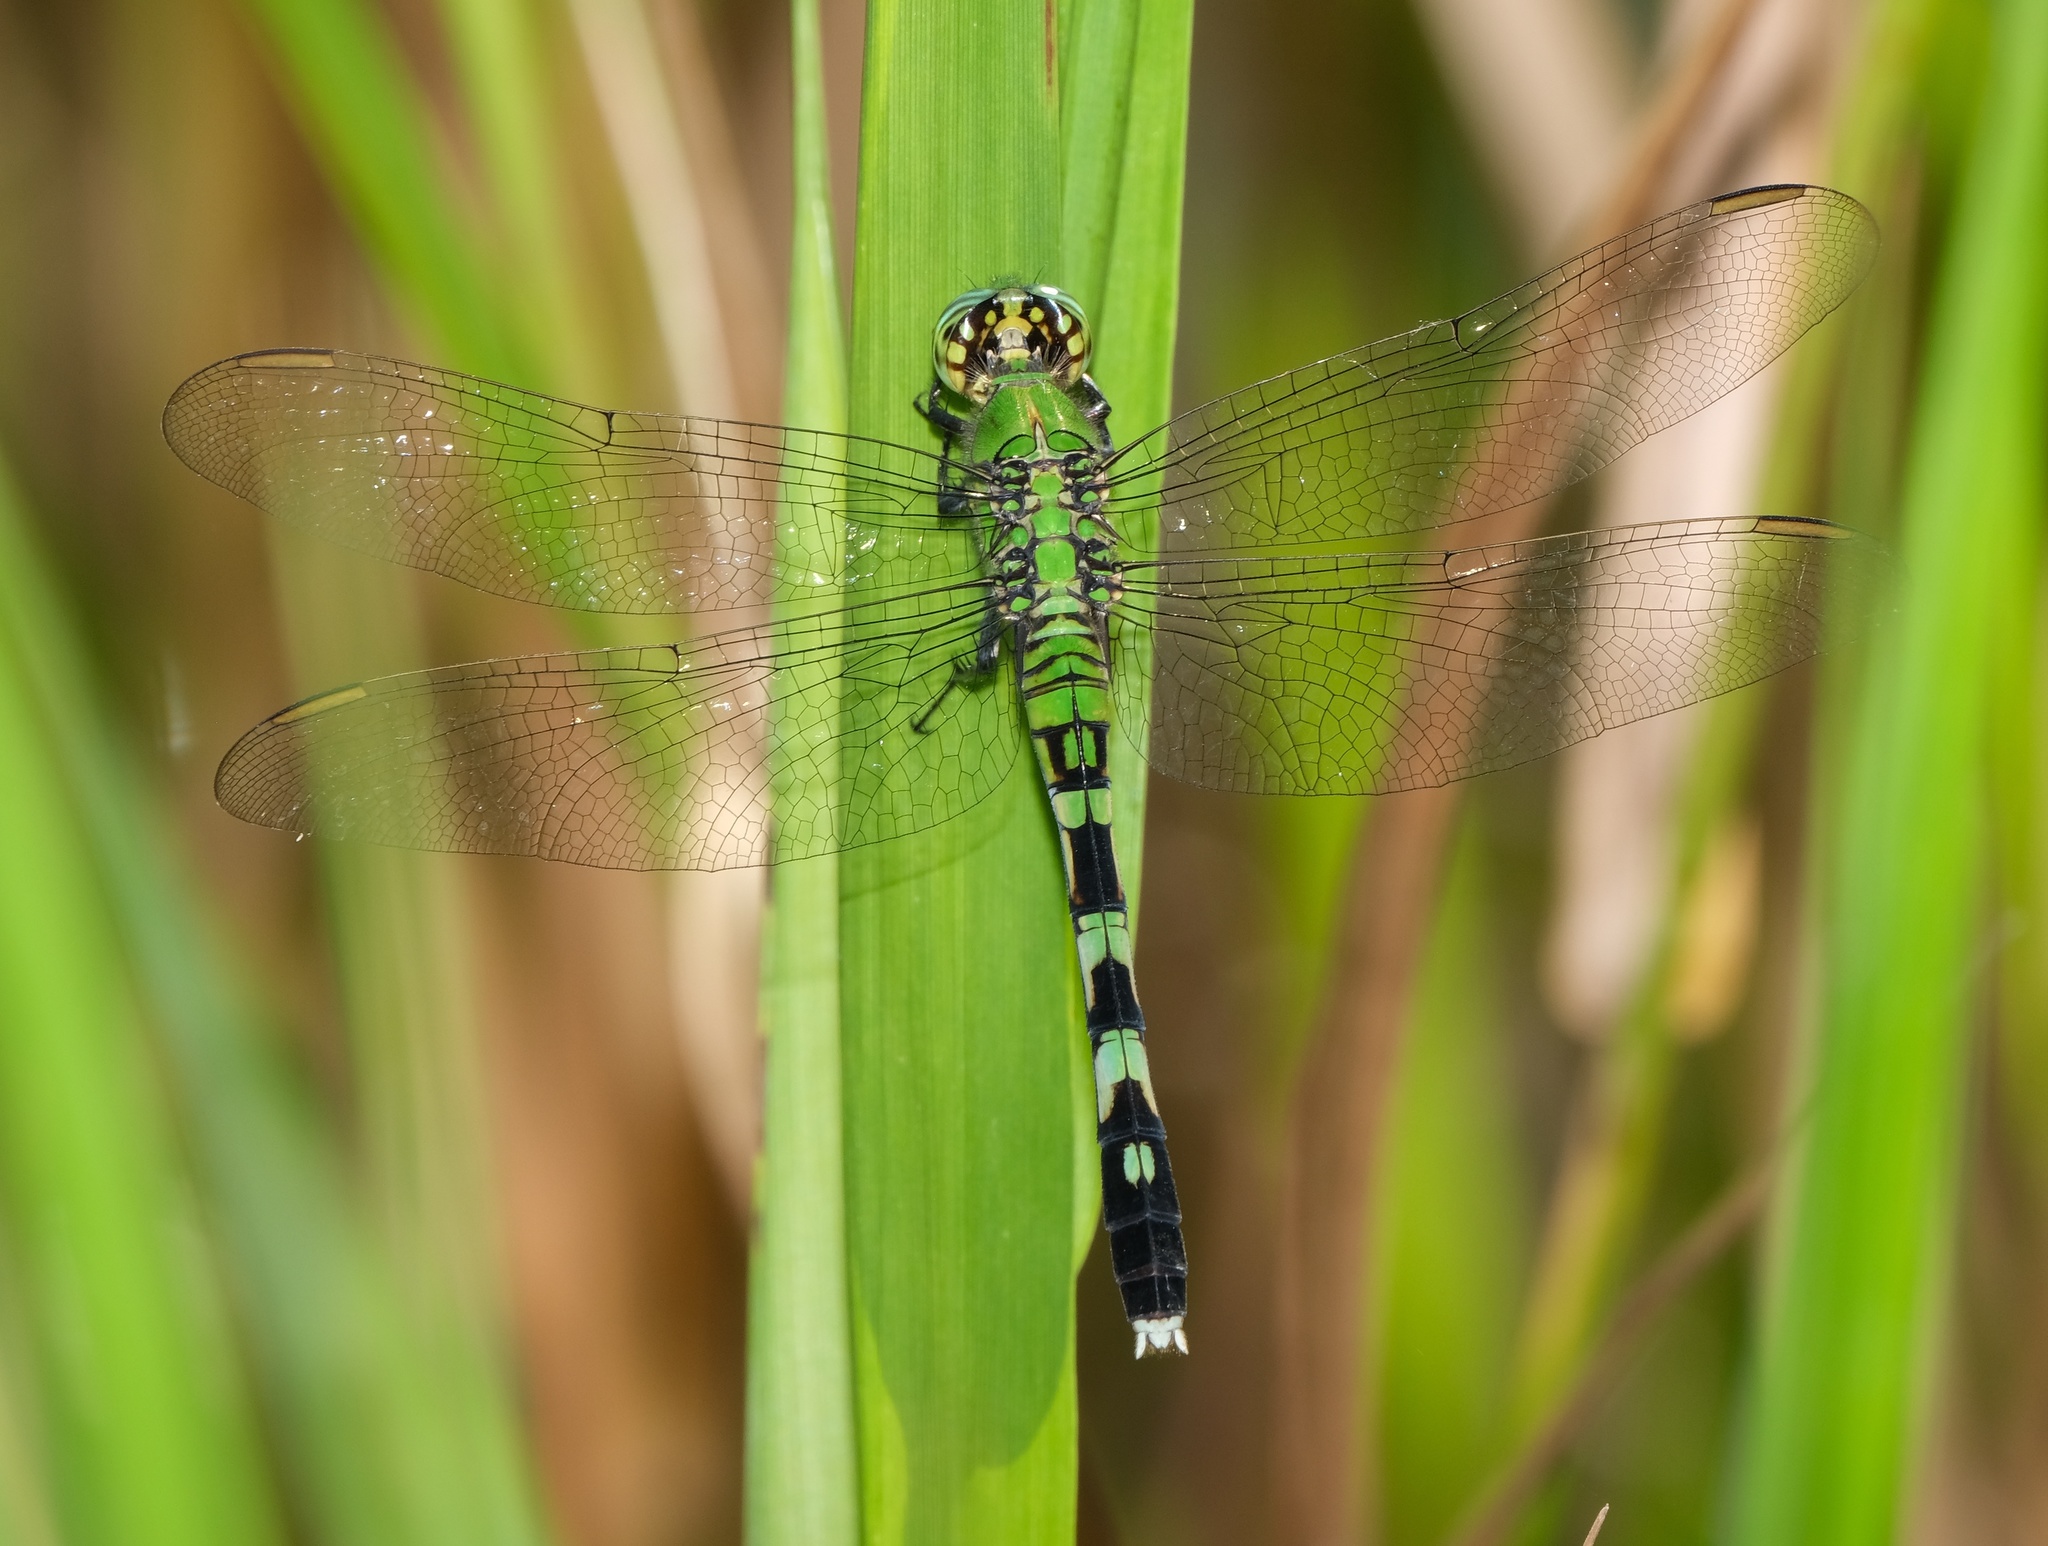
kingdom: Animalia
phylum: Arthropoda
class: Insecta
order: Odonata
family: Libellulidae
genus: Erythemis
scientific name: Erythemis simplicicollis
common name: Eastern pondhawk
